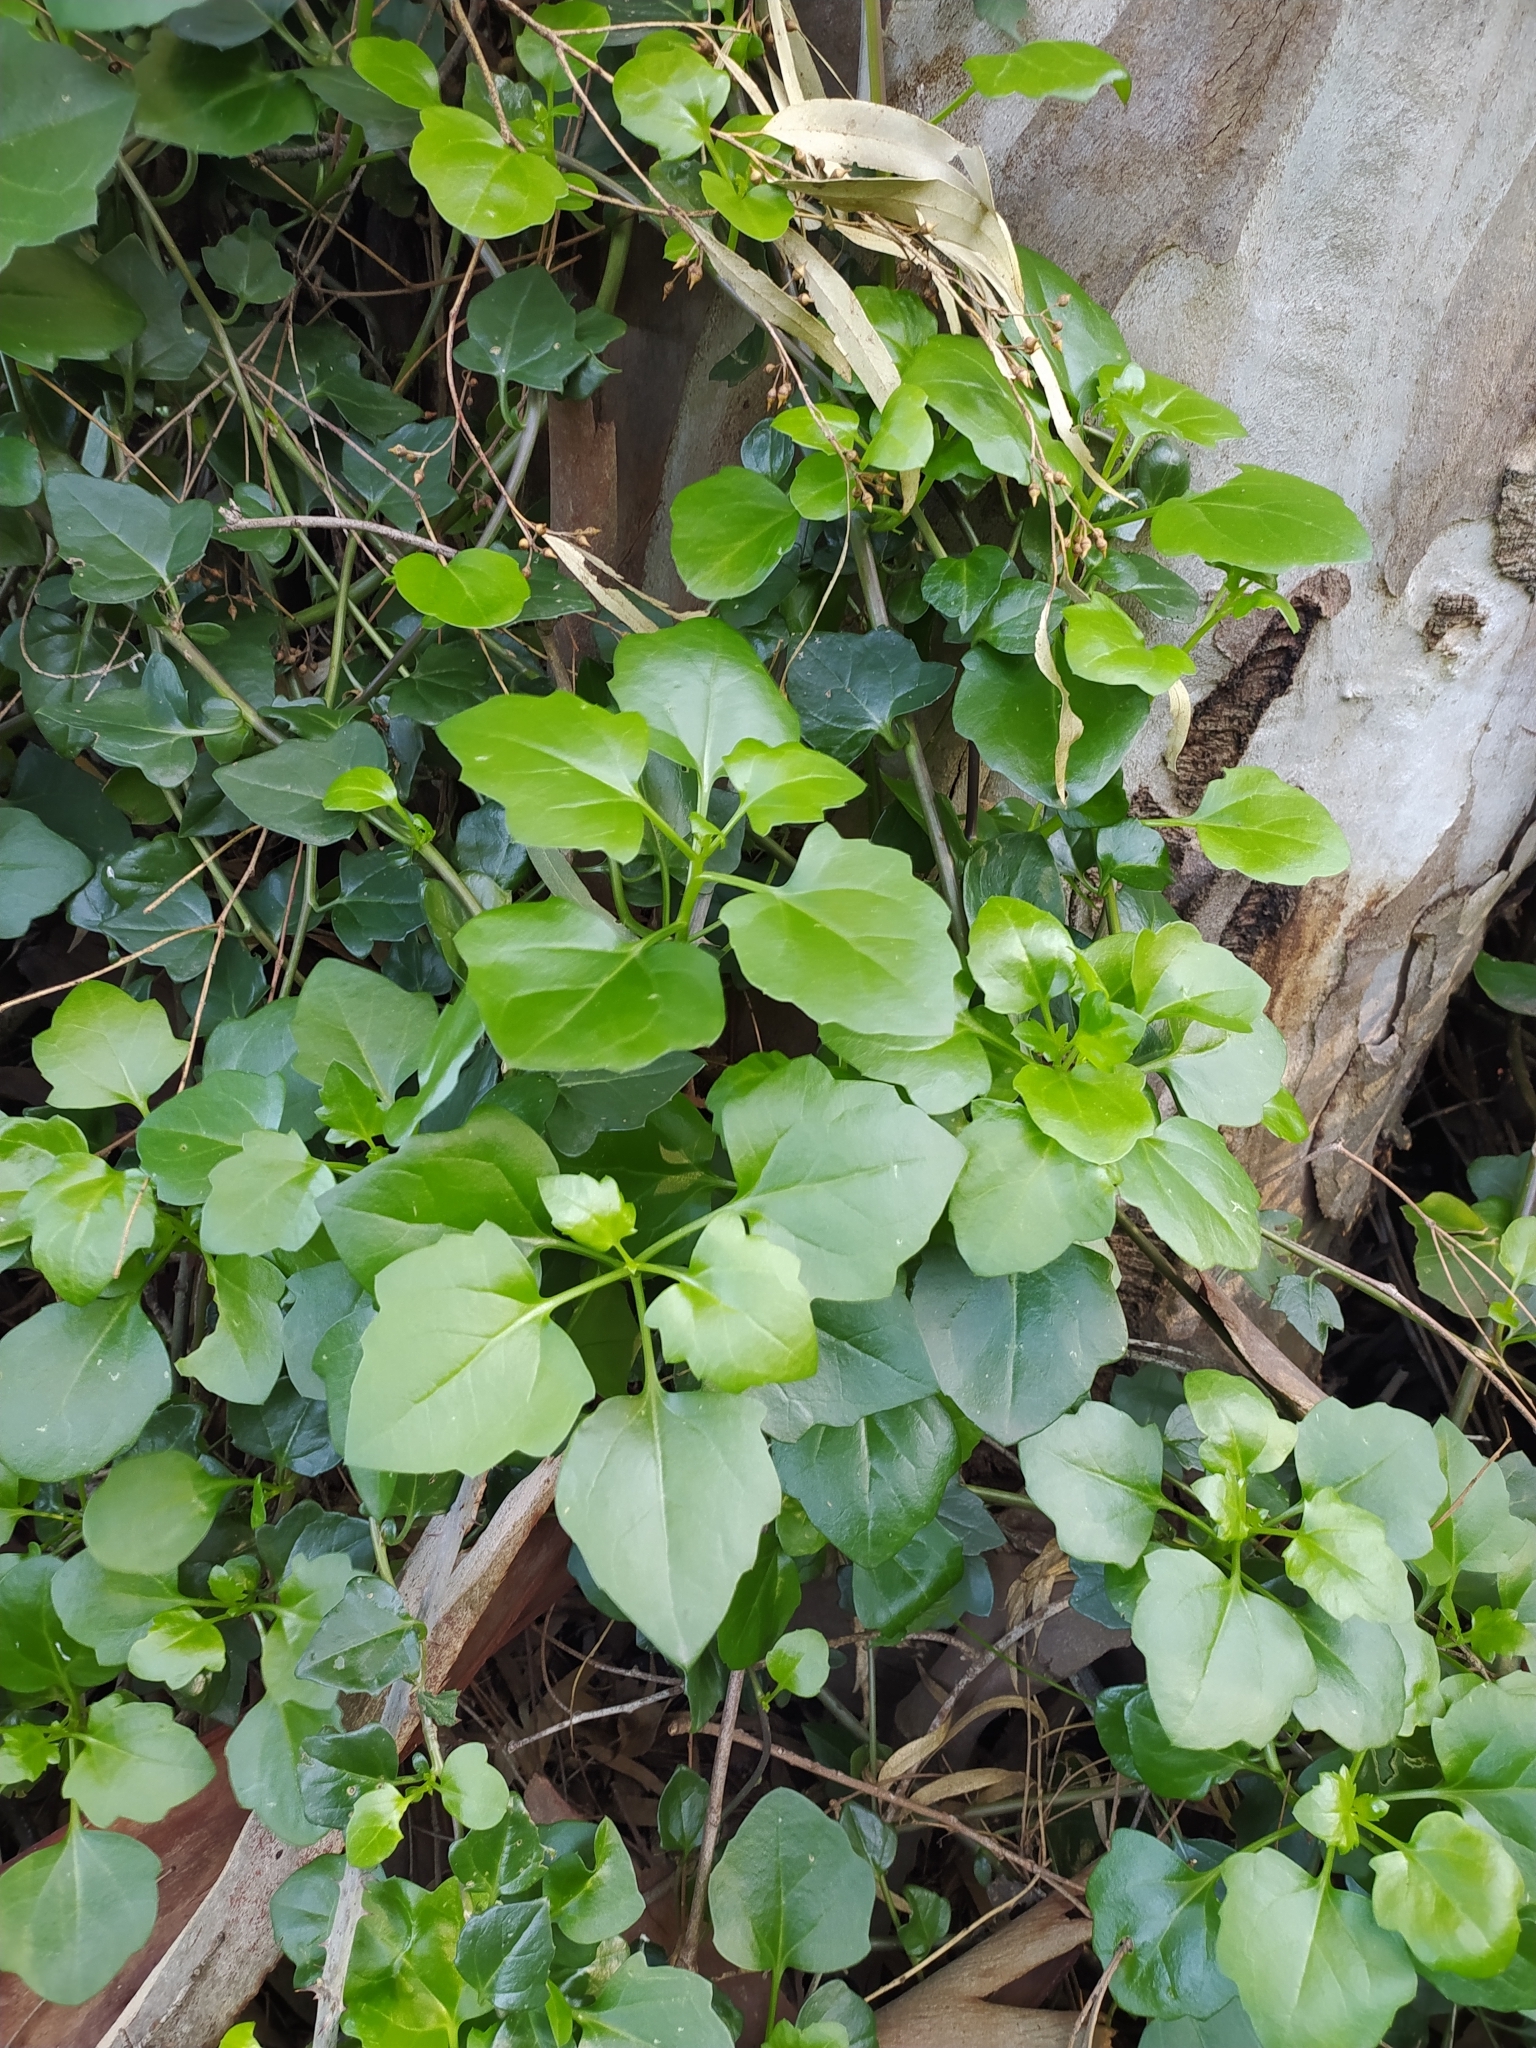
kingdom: Plantae
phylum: Tracheophyta
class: Magnoliopsida
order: Asterales
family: Asteraceae
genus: Senecio
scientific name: Senecio angulatus
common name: Climbing groundsel
